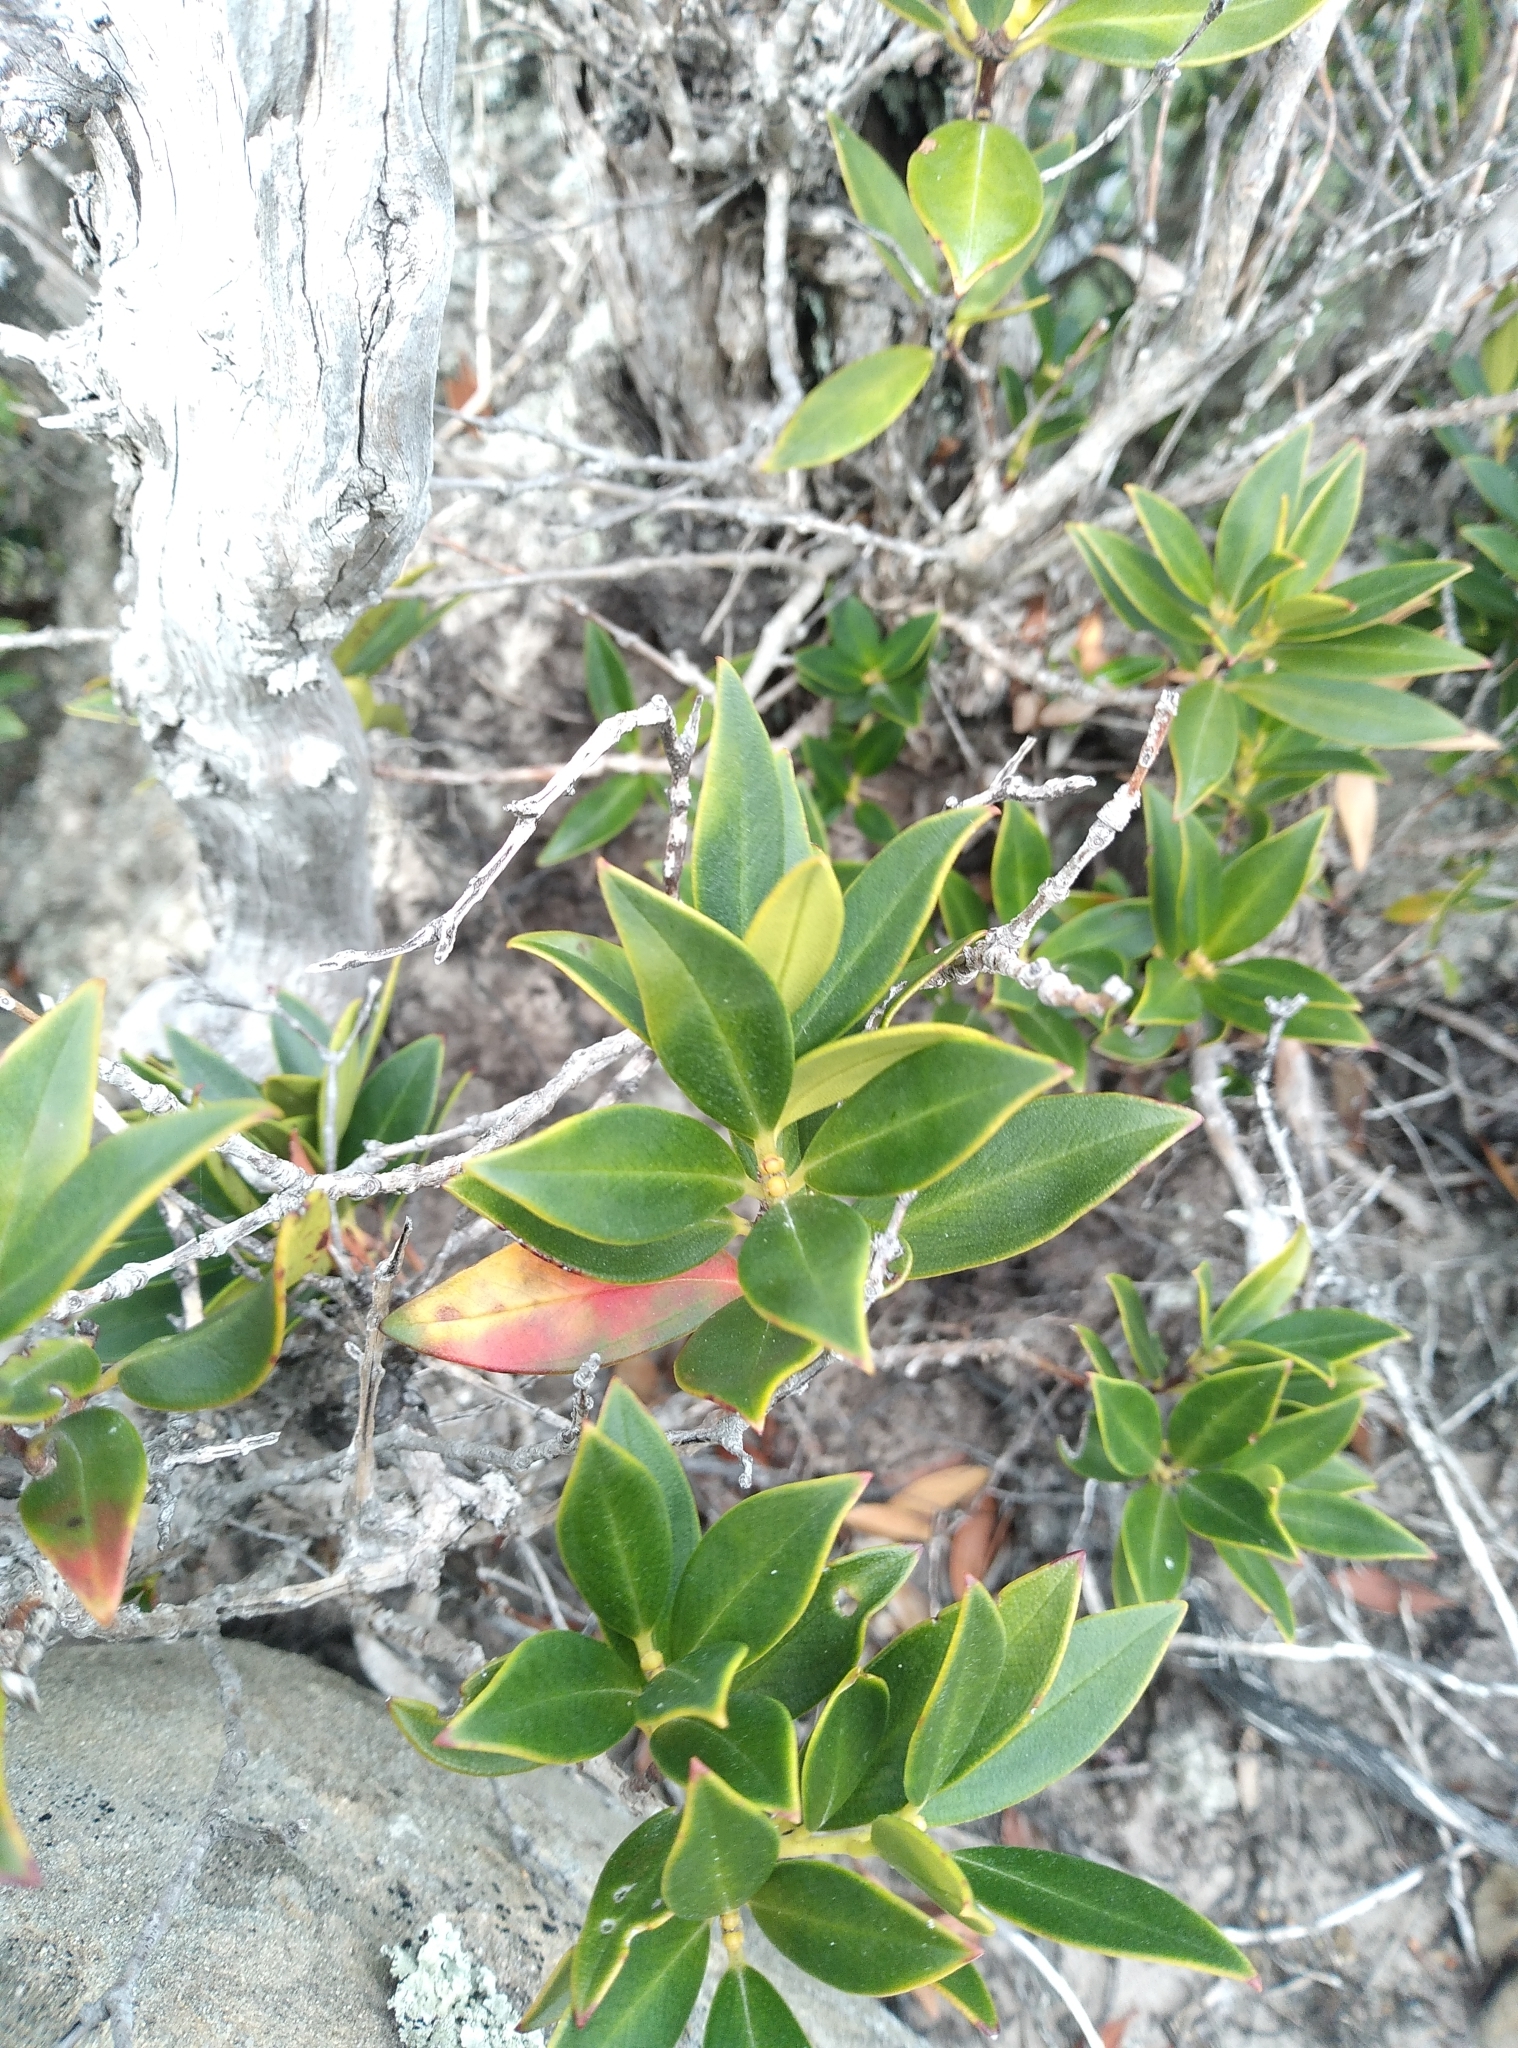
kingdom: Plantae
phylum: Tracheophyta
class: Magnoliopsida
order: Myrtales
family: Myrtaceae
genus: Metrosideros
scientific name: Metrosideros umbellata
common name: Southern rata
